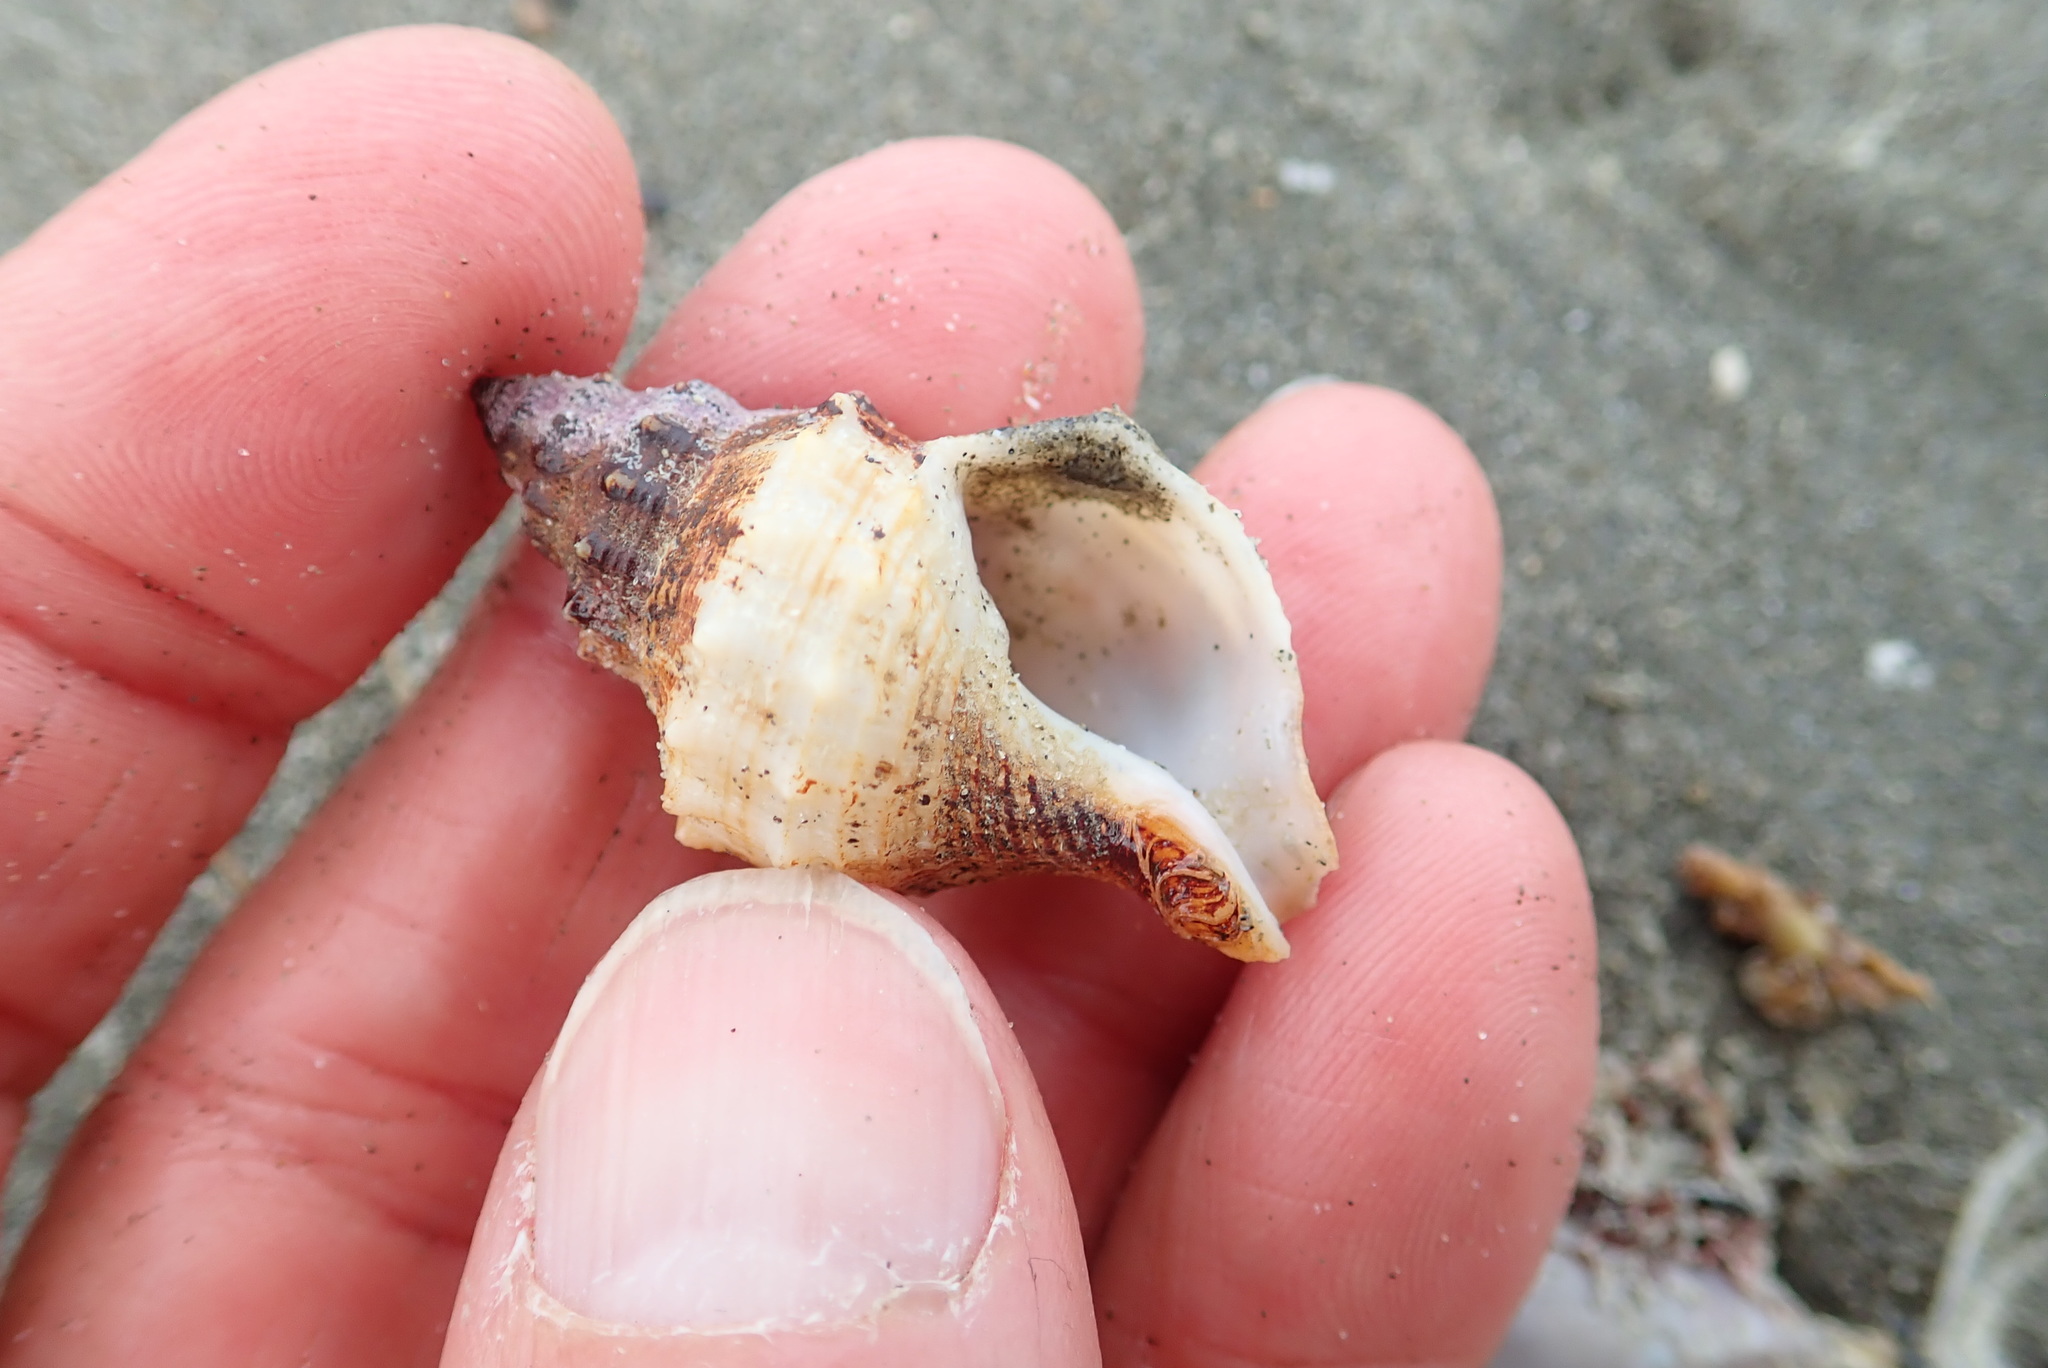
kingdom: Animalia
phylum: Mollusca
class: Gastropoda
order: Neogastropoda
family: Prosiphonidae
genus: Austrofusus
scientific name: Austrofusus glans
